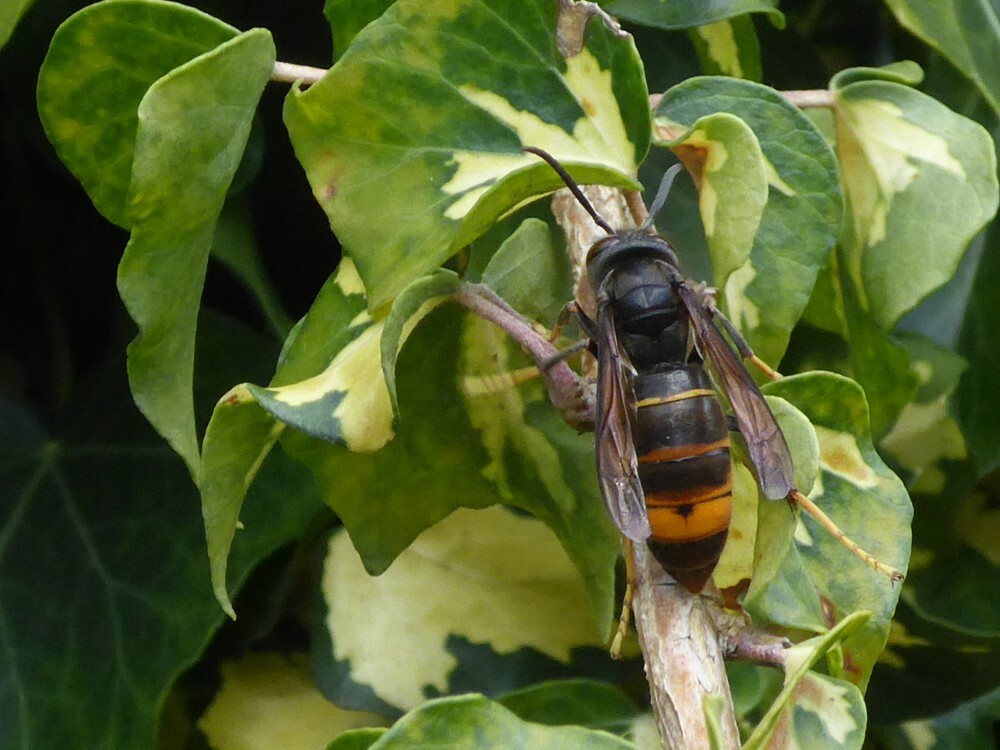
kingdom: Animalia
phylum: Arthropoda
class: Insecta
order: Hymenoptera
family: Vespidae
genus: Vespa
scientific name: Vespa velutina
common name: Asian hornet
